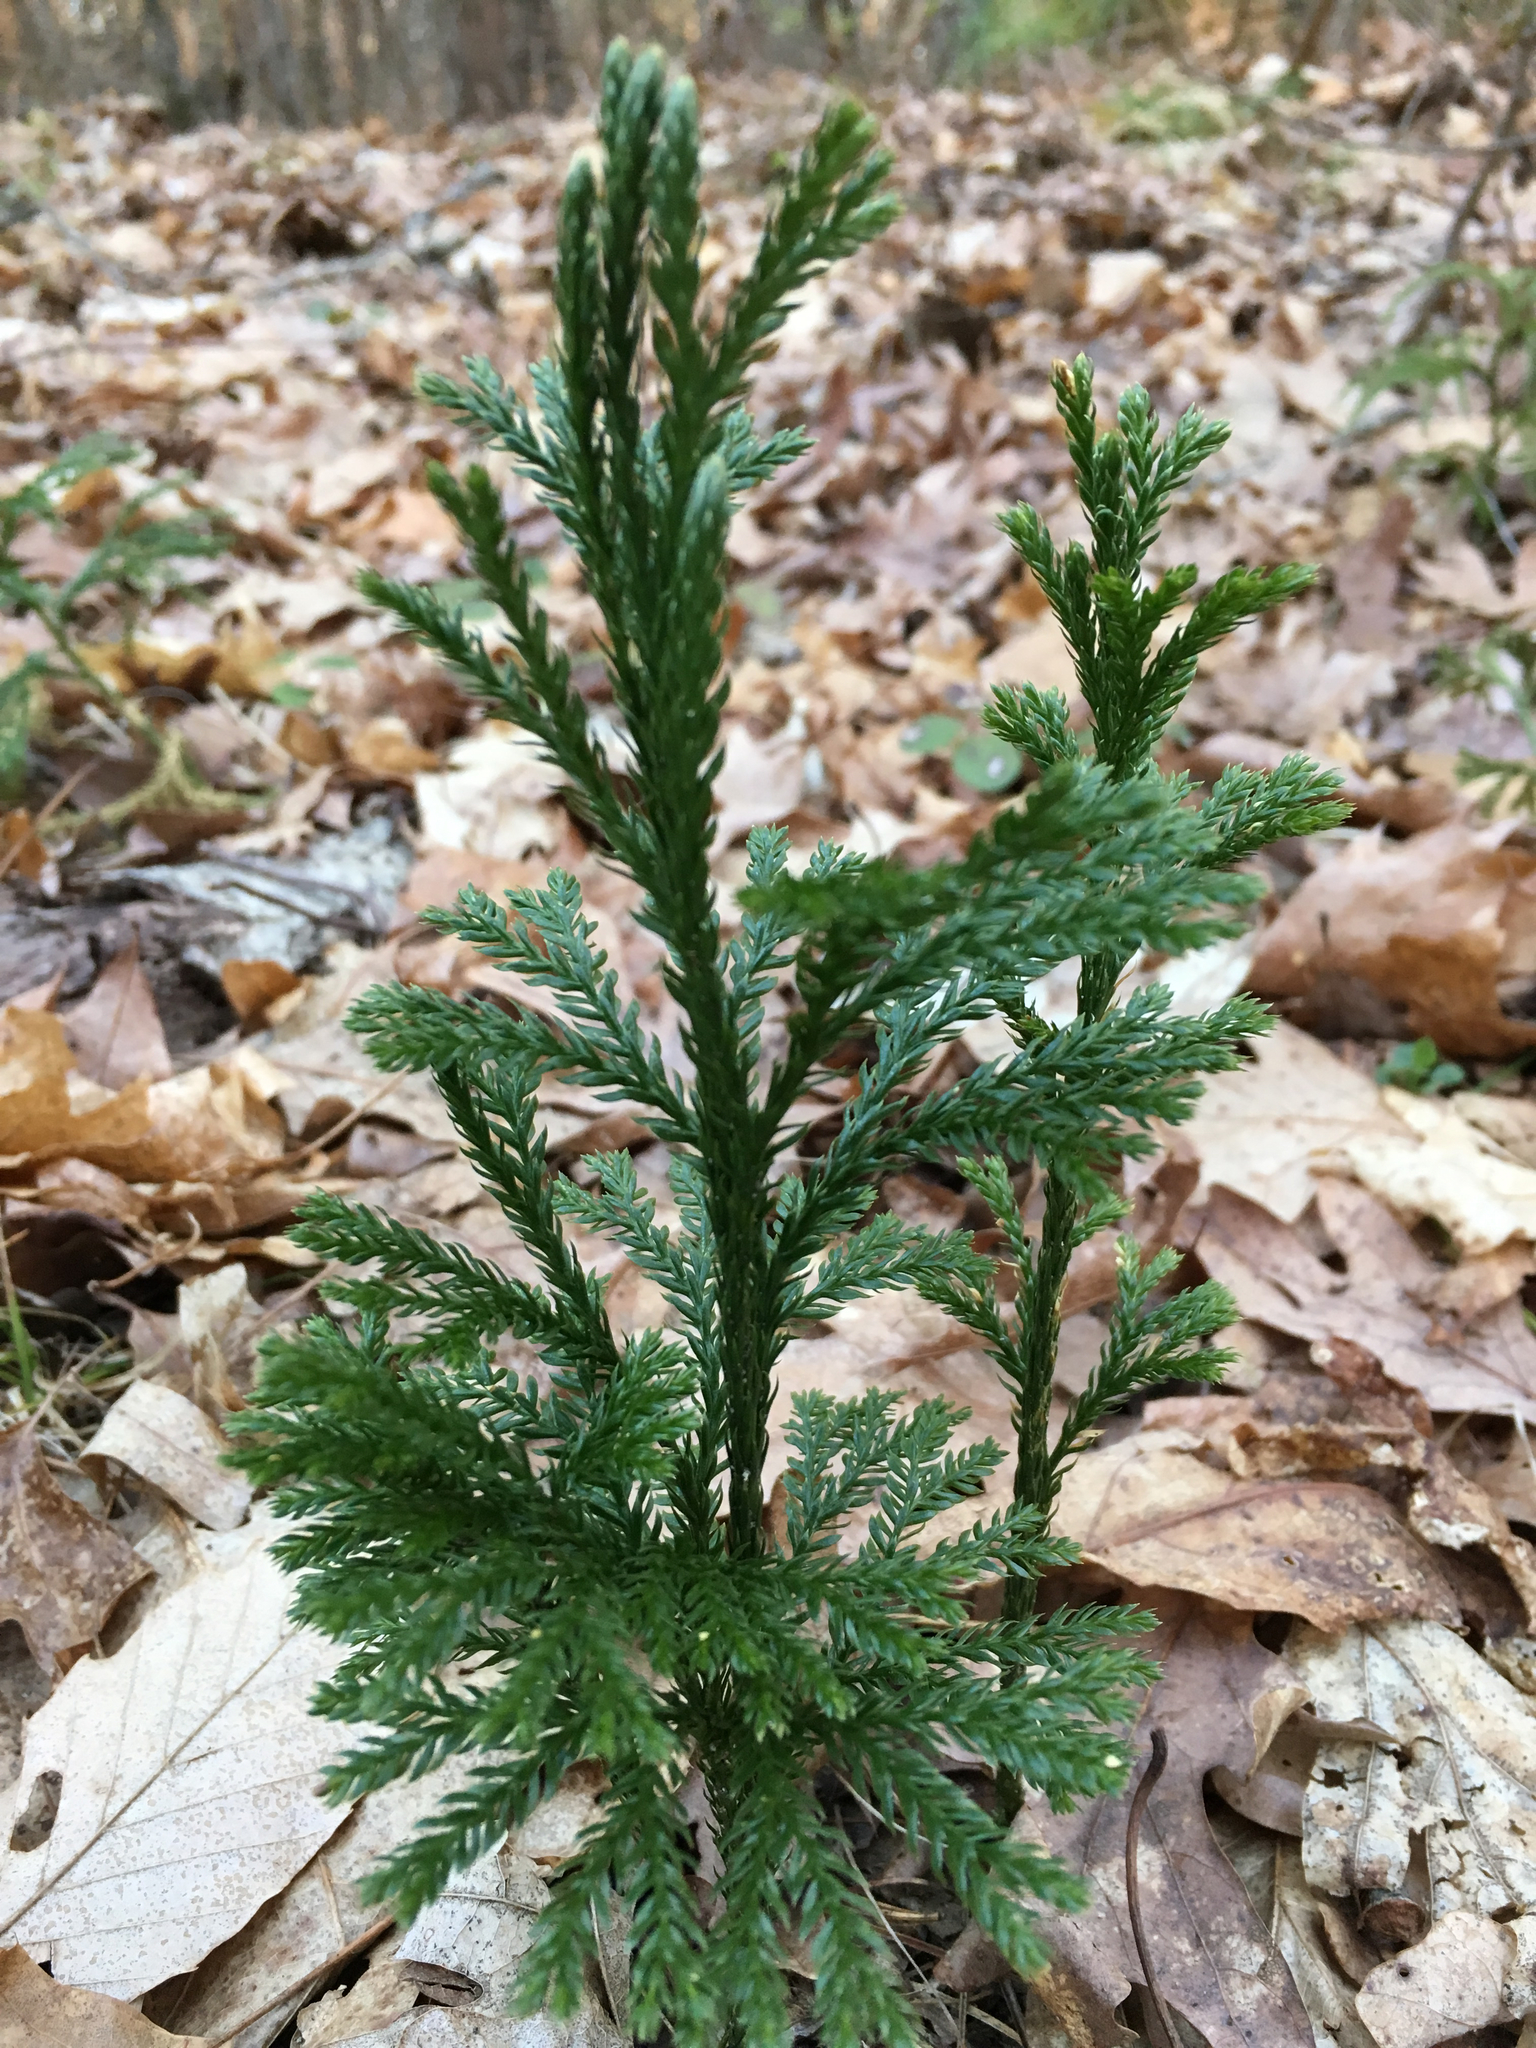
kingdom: Plantae
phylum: Tracheophyta
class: Lycopodiopsida
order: Lycopodiales
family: Lycopodiaceae
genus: Dendrolycopodium
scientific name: Dendrolycopodium obscurum
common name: Common ground-pine
